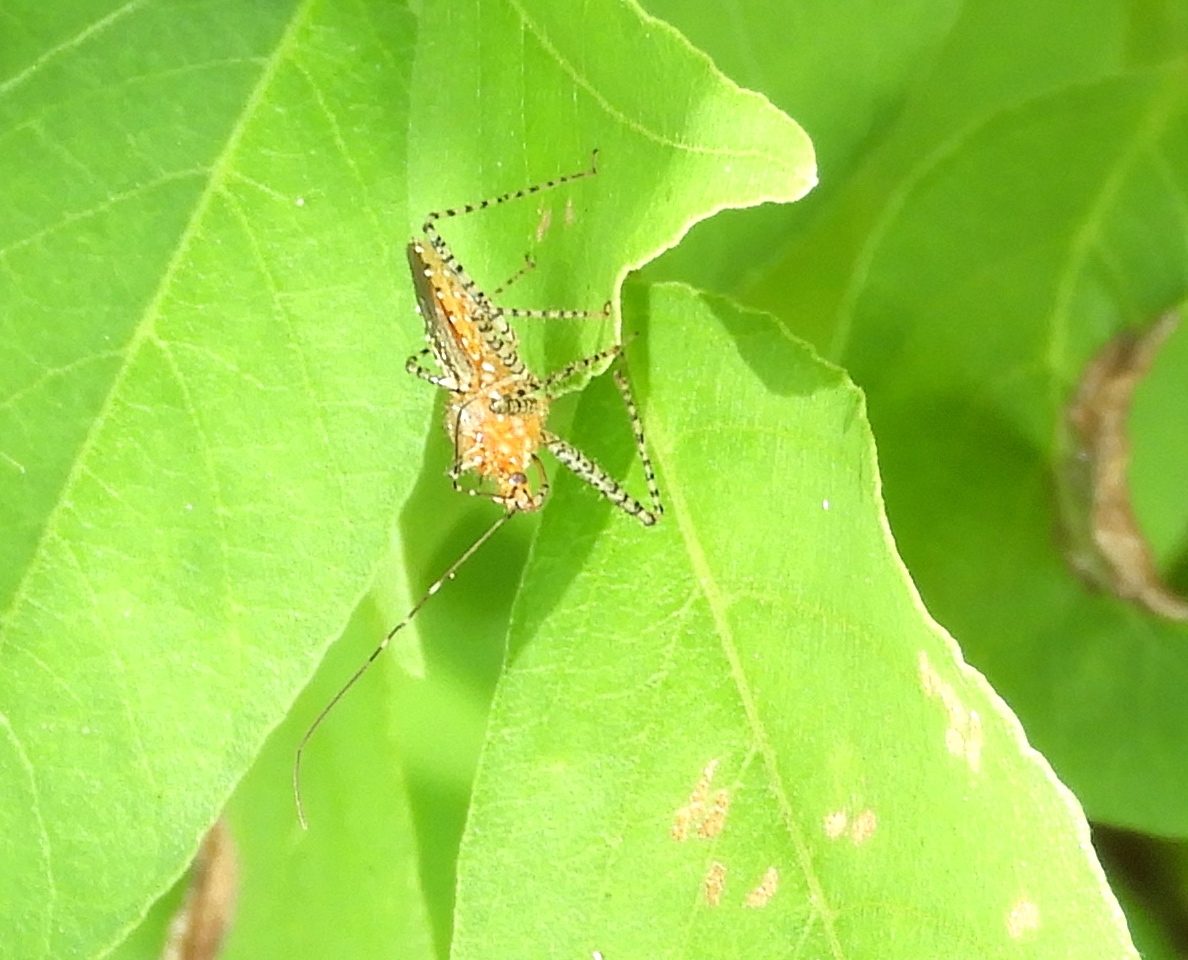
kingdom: Animalia
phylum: Arthropoda
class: Insecta
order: Hemiptera
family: Reduviidae
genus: Pselliopus
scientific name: Pselliopus
